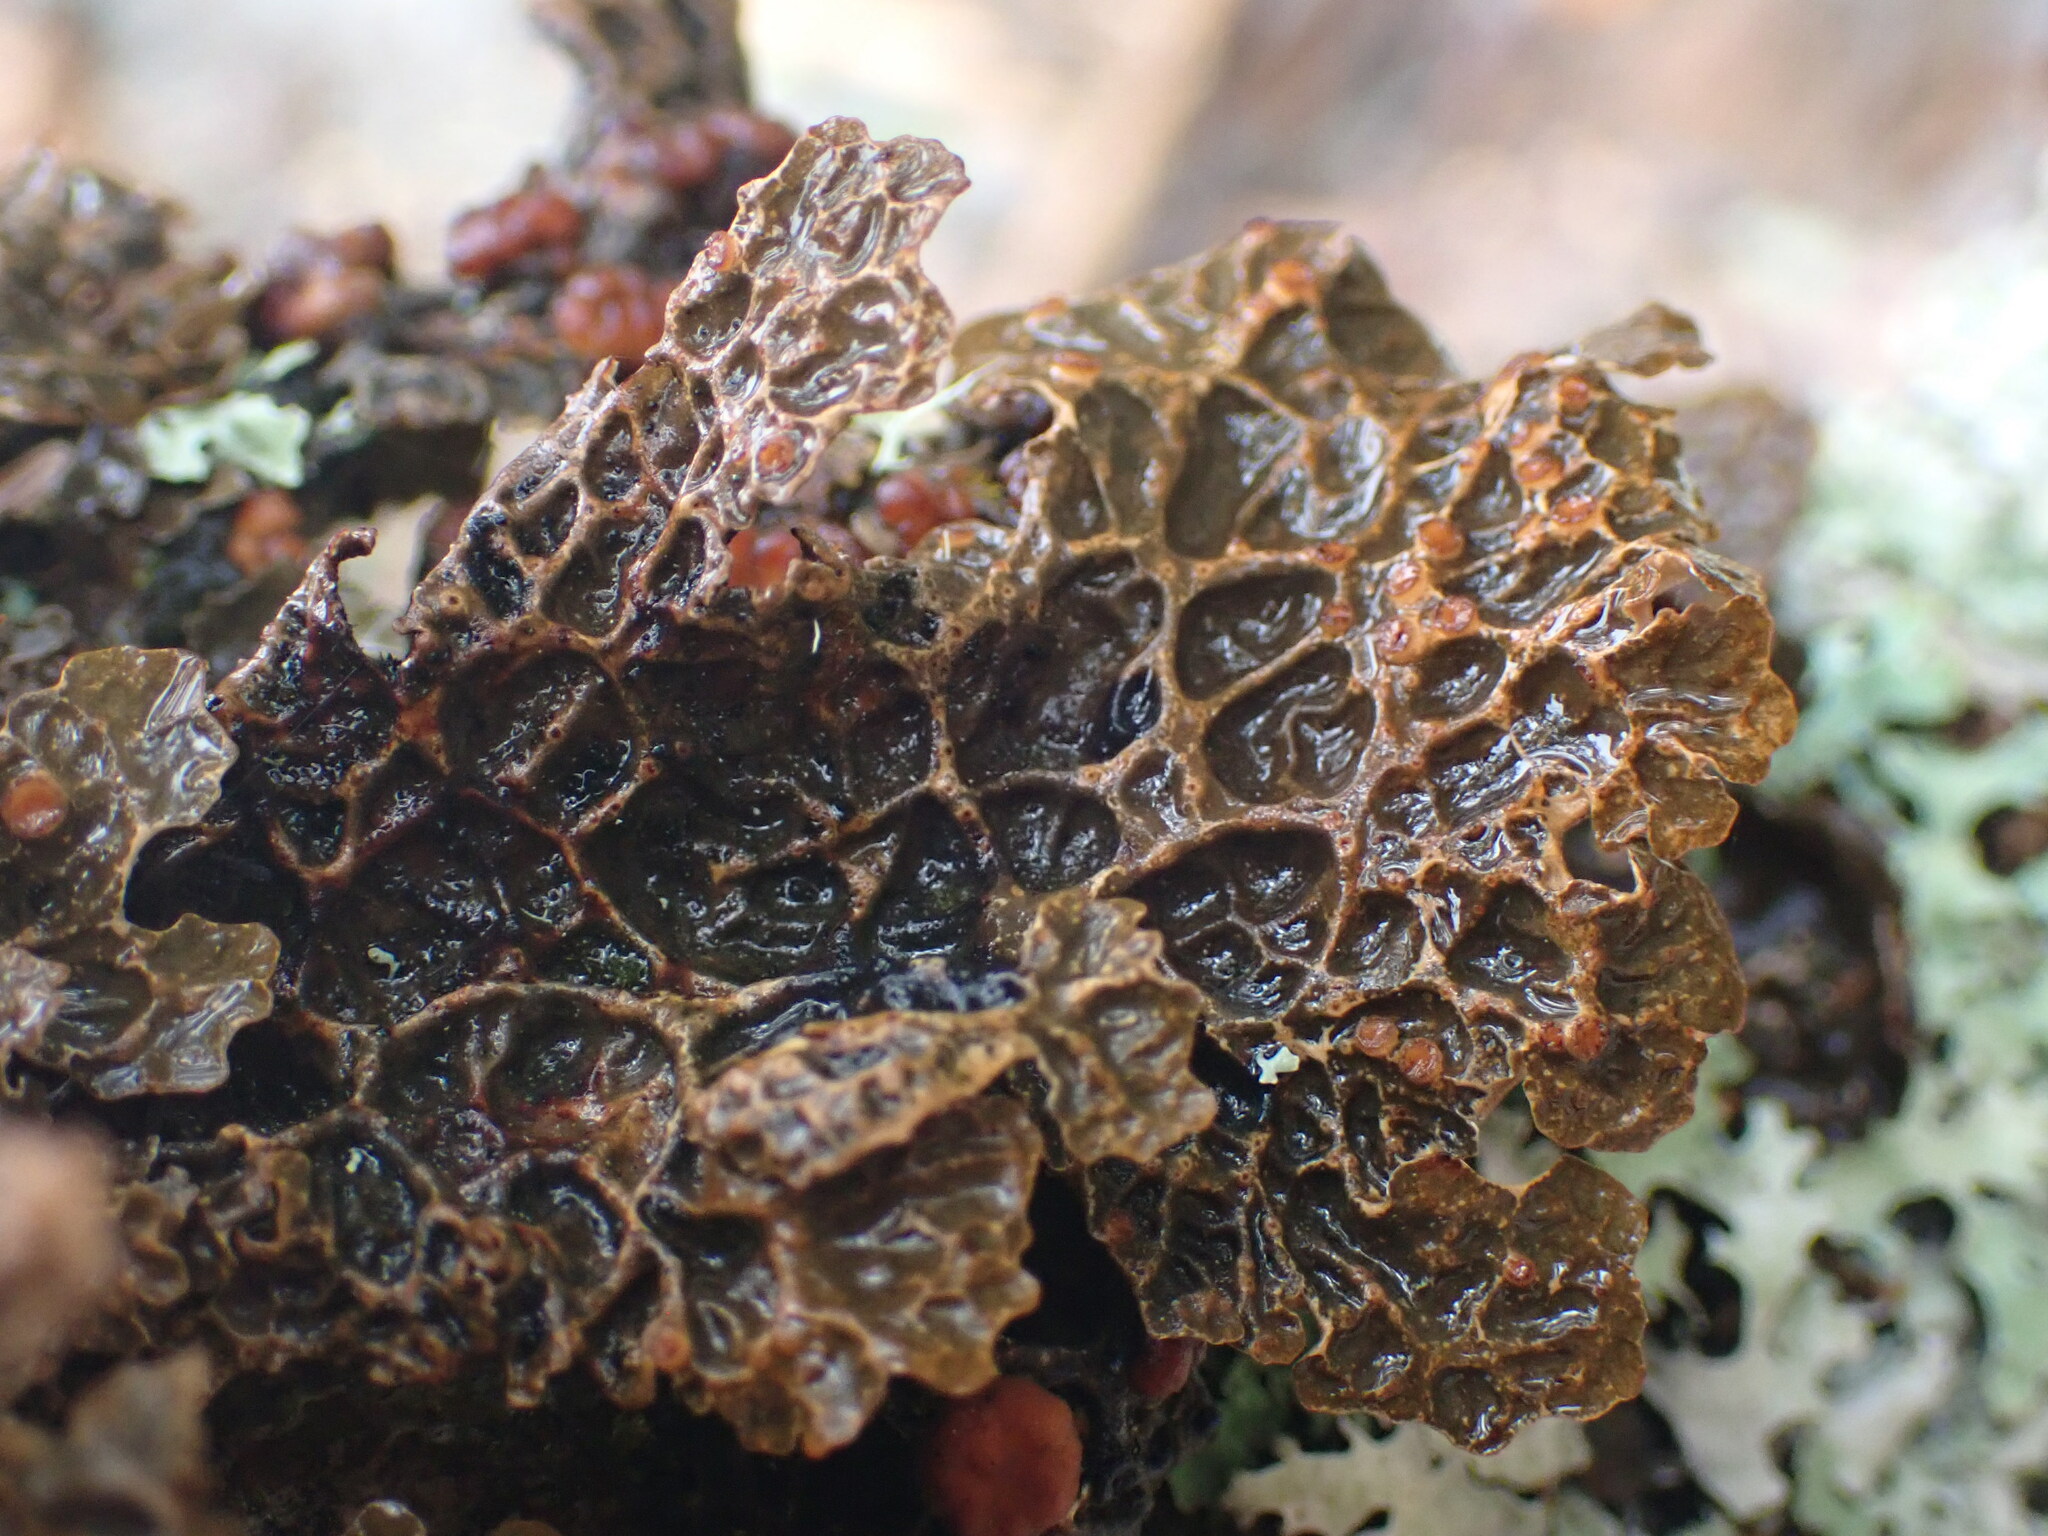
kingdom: Fungi
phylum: Ascomycota
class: Lecanoromycetes
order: Peltigerales
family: Lobariaceae
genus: Lobaria
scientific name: Lobaria anthraspis
